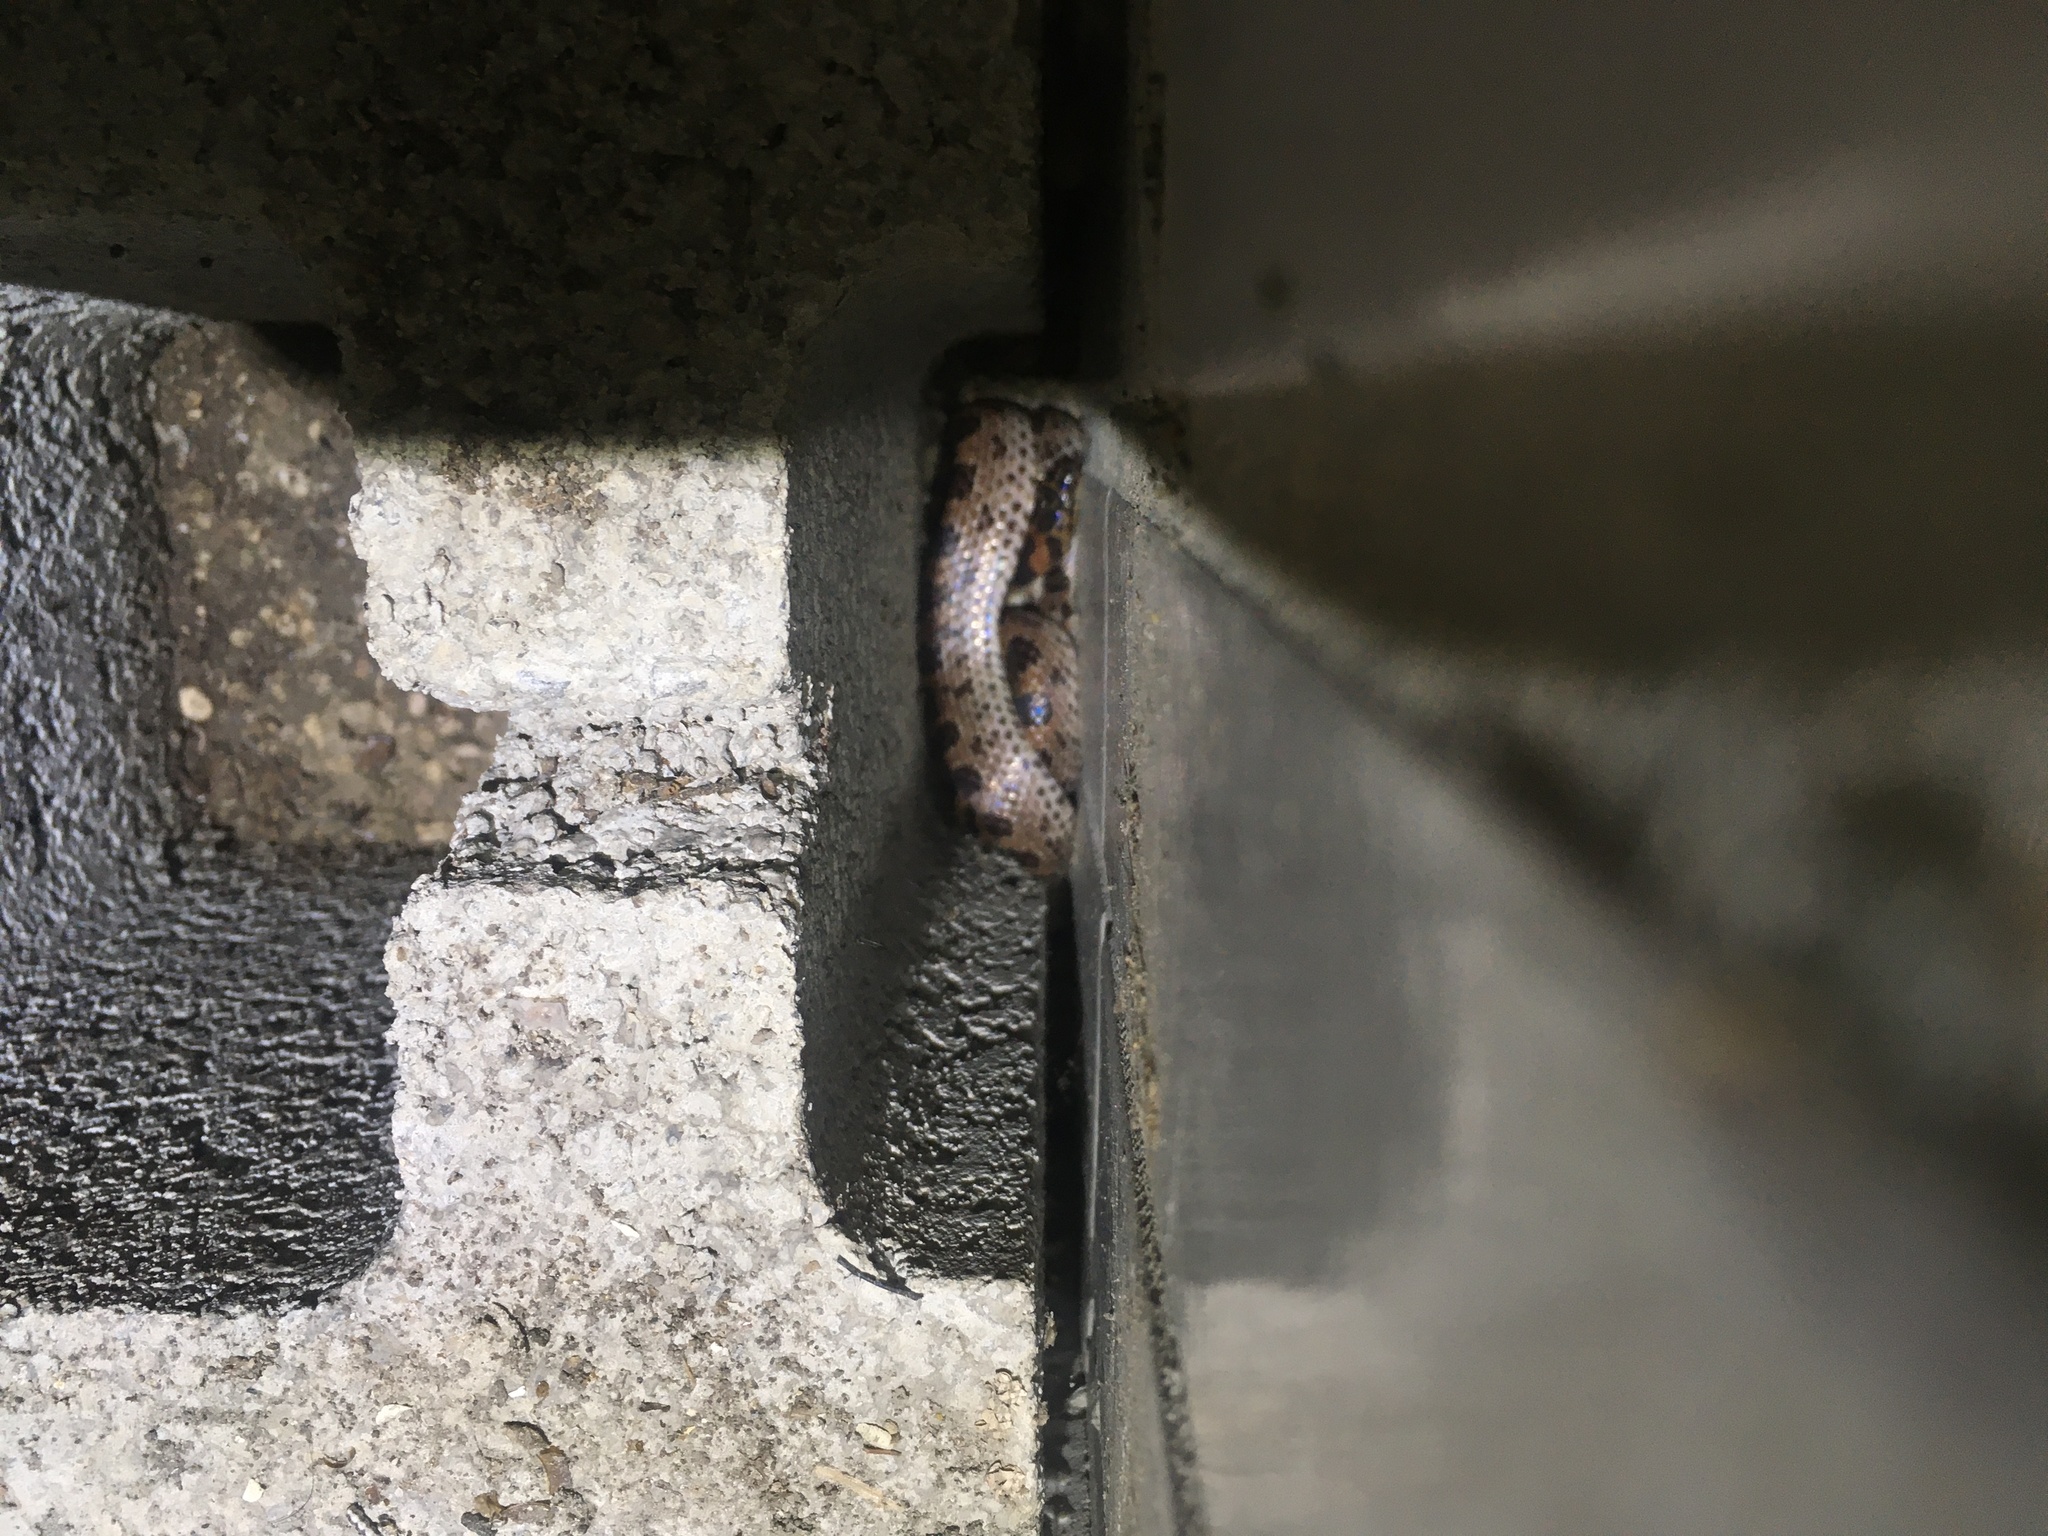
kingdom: Animalia
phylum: Chordata
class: Squamata
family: Colubridae
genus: Lycodon
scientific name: Lycodon rufozonatus
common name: Red-banded snake
